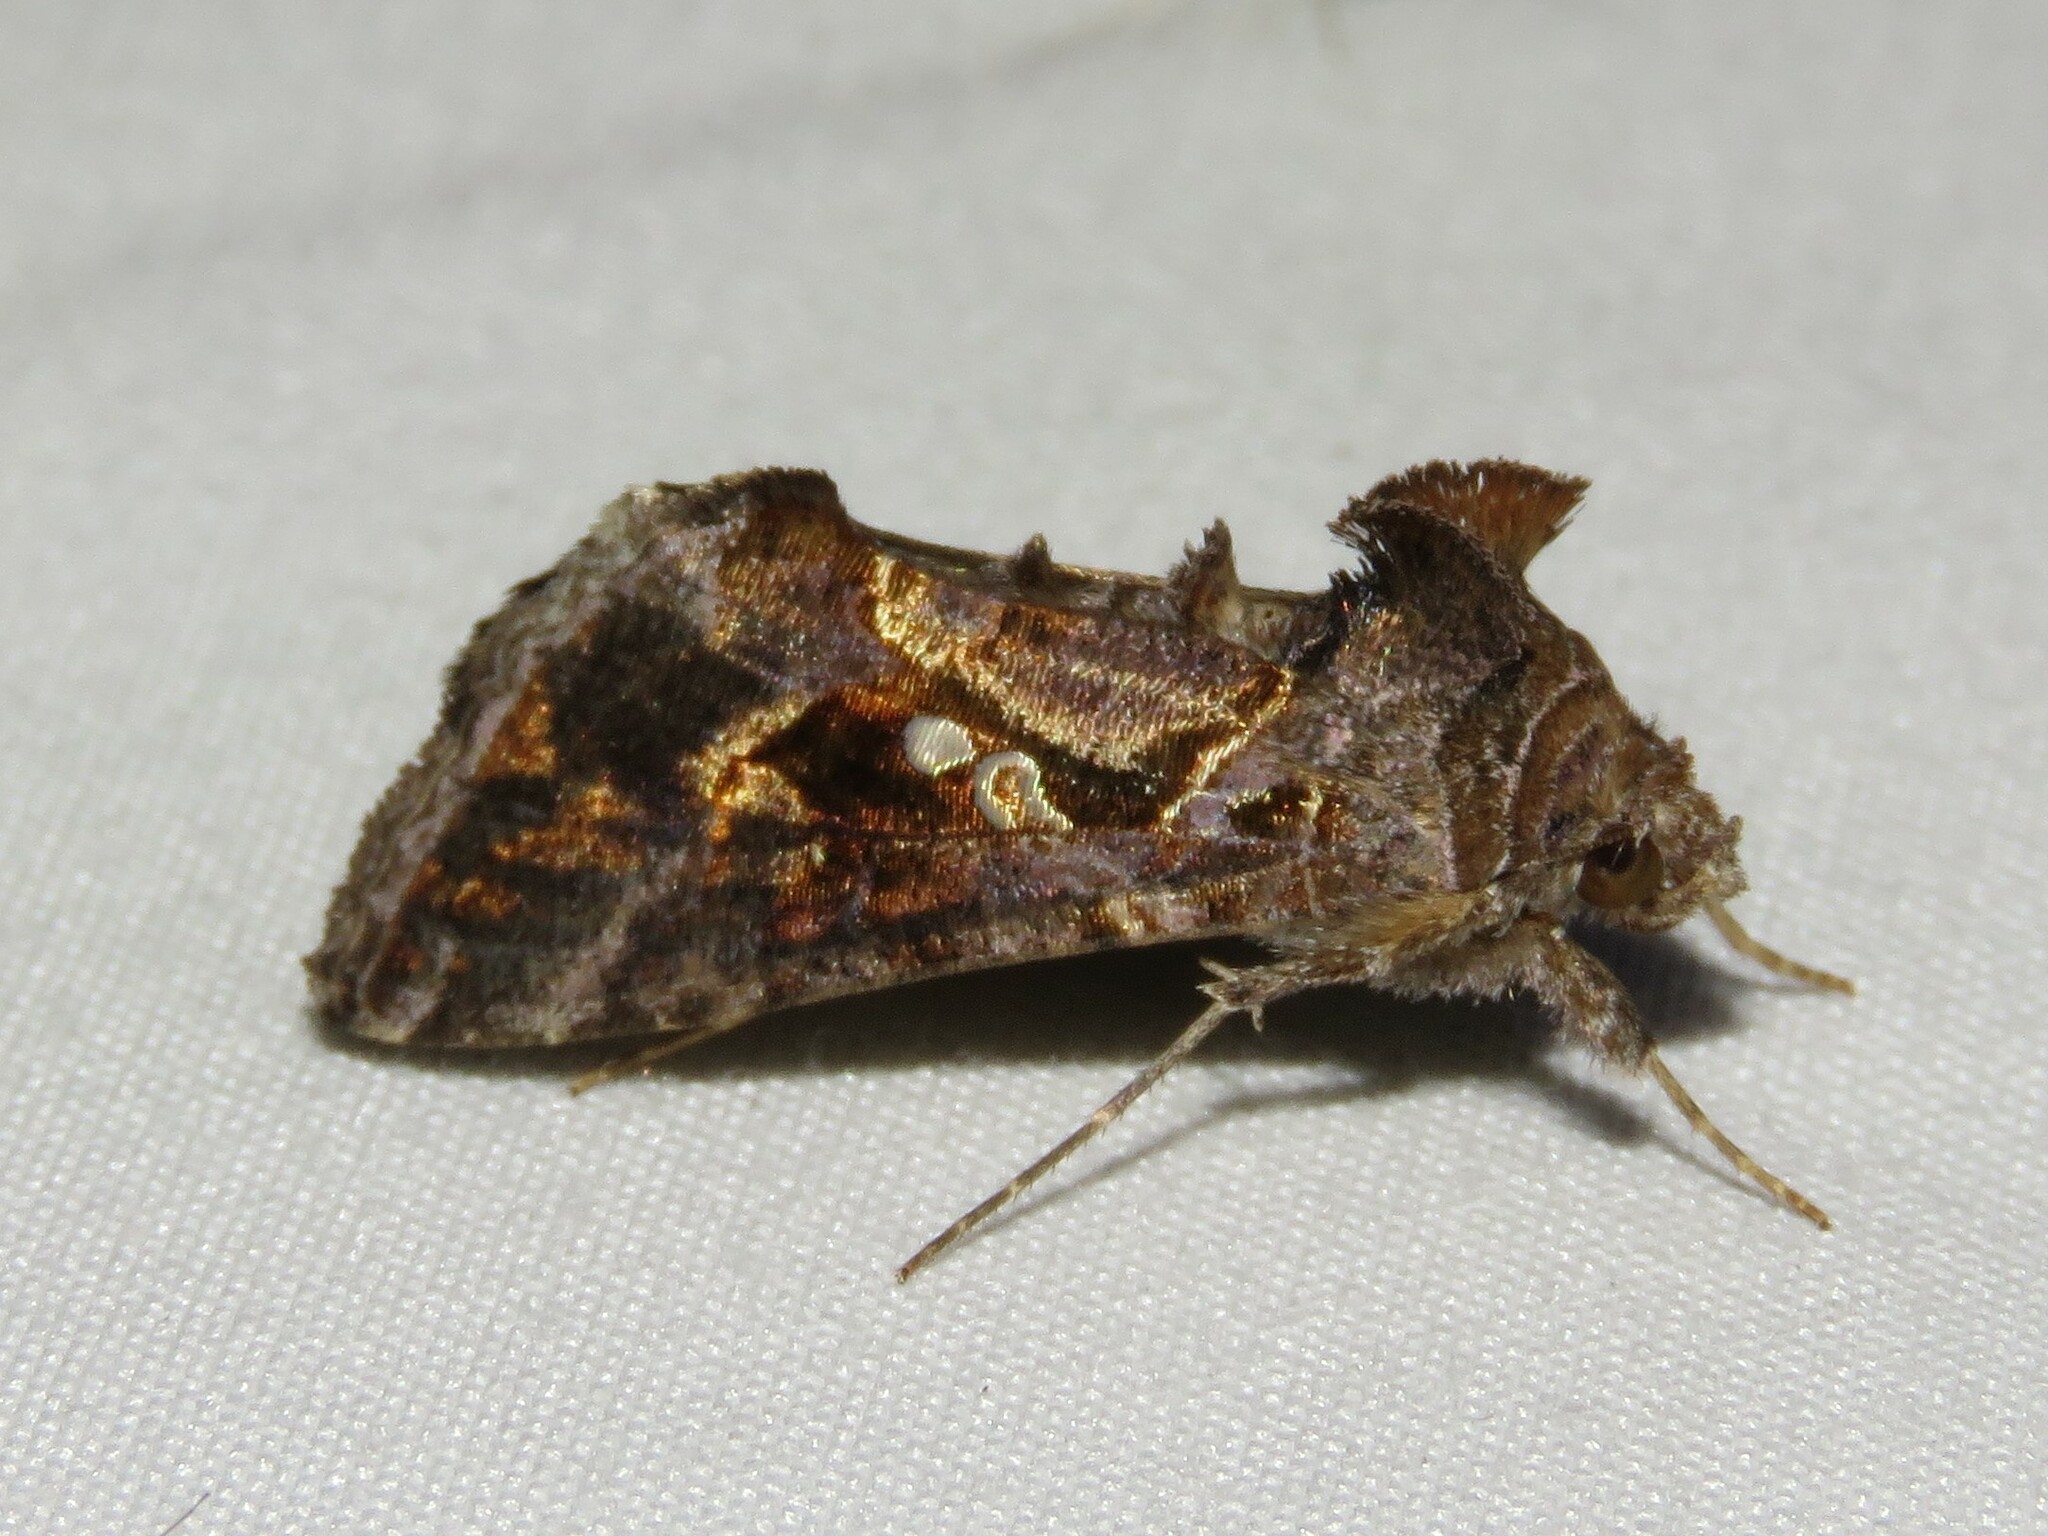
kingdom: Animalia
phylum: Arthropoda
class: Insecta
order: Lepidoptera
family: Noctuidae
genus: Chrysodeixis
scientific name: Chrysodeixis includens
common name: Cutworm moth
